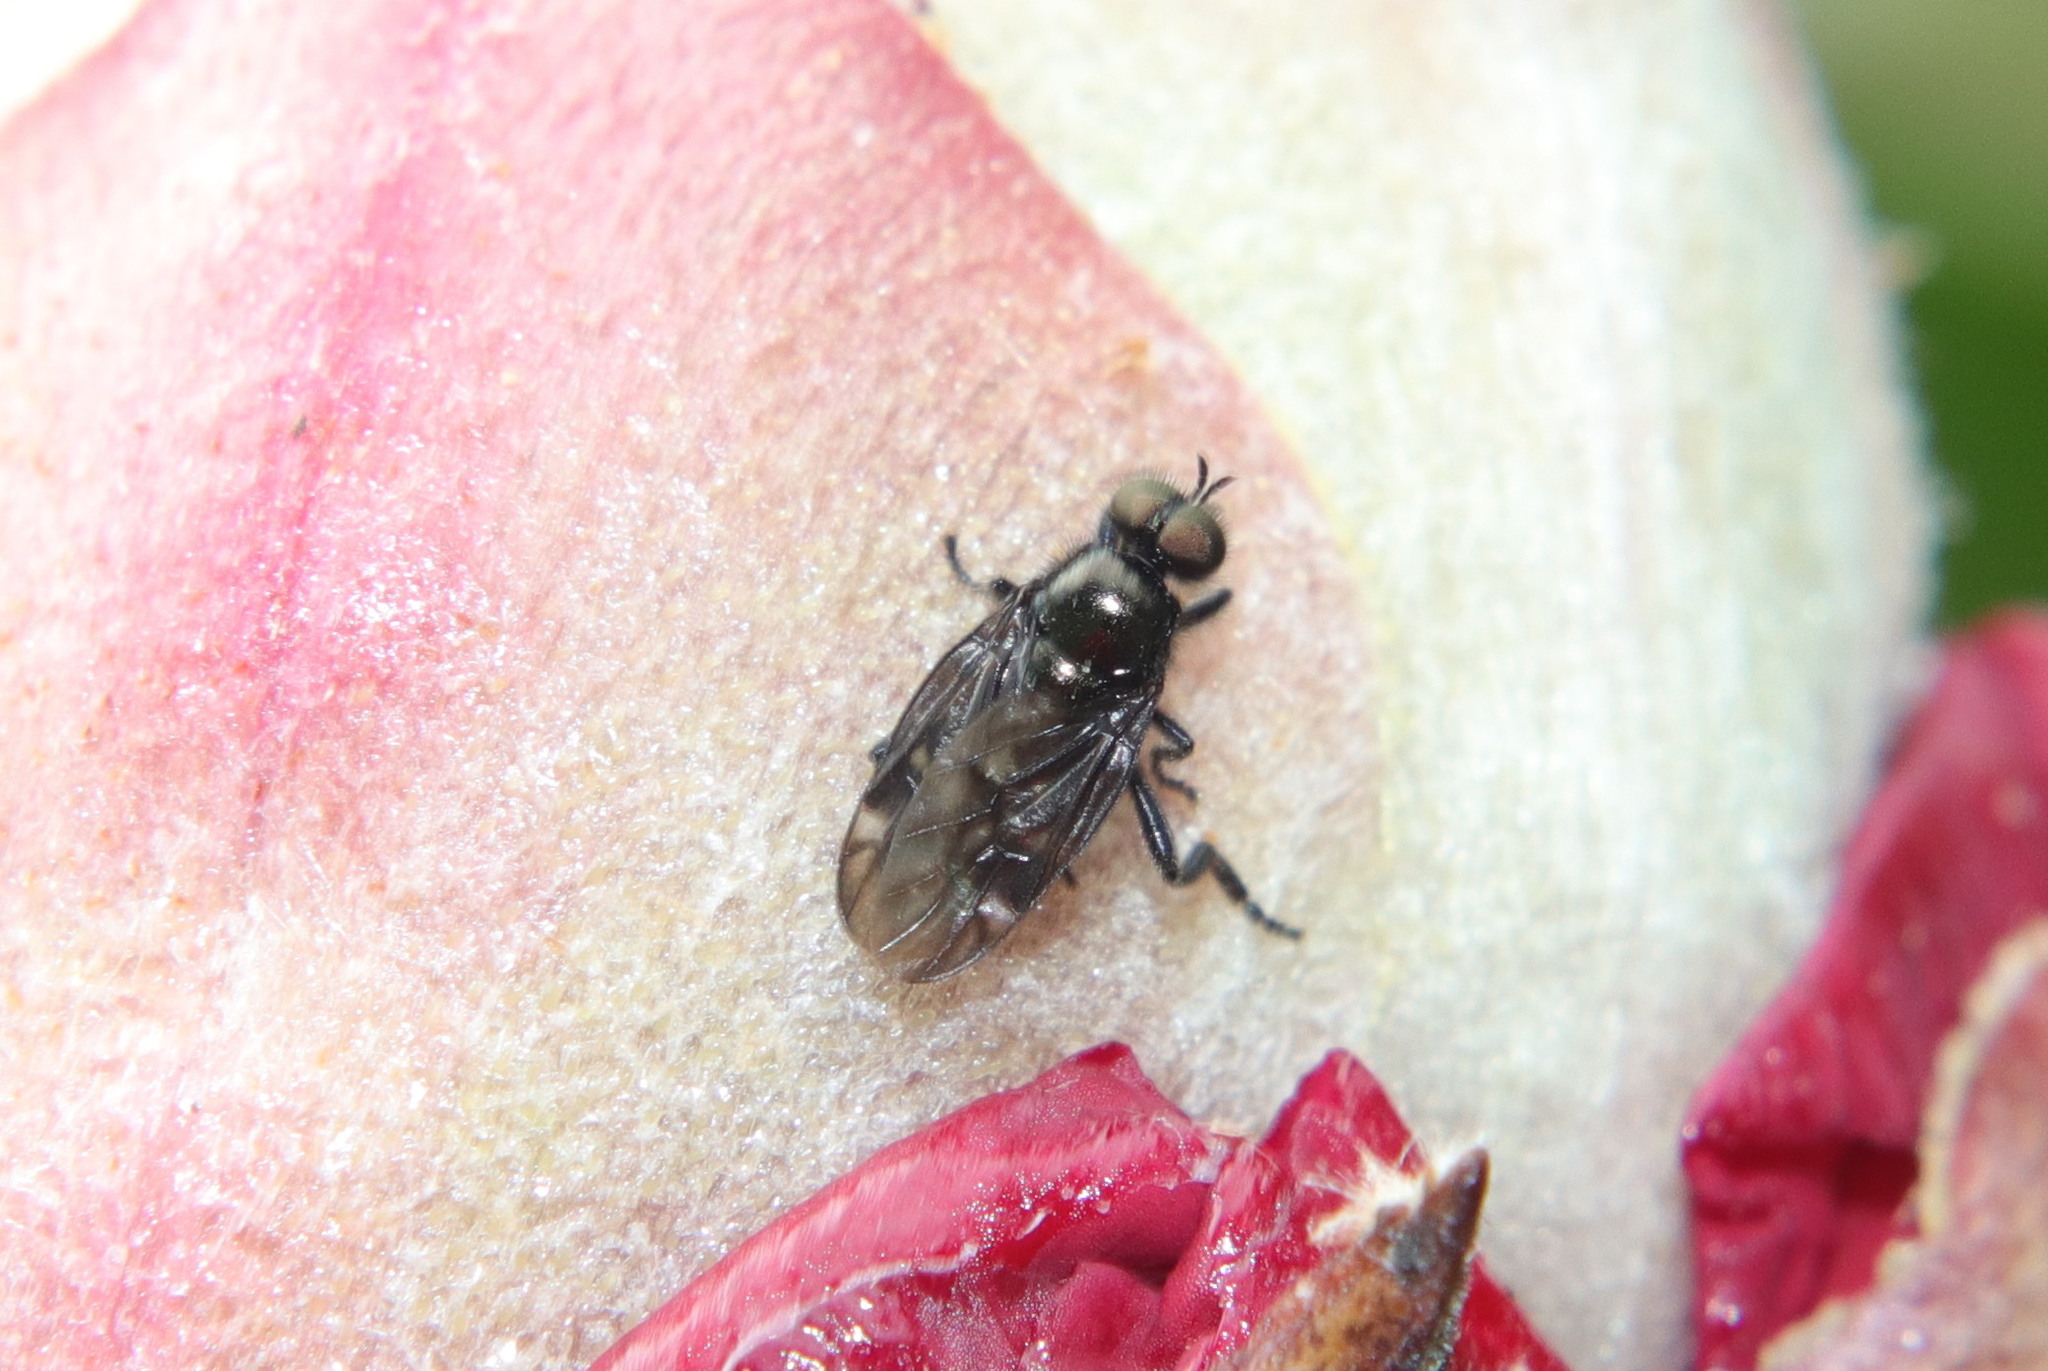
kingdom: Animalia
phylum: Arthropoda
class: Insecta
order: Diptera
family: Stratiomyidae
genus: Berisina
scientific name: Berisina maculipennis
